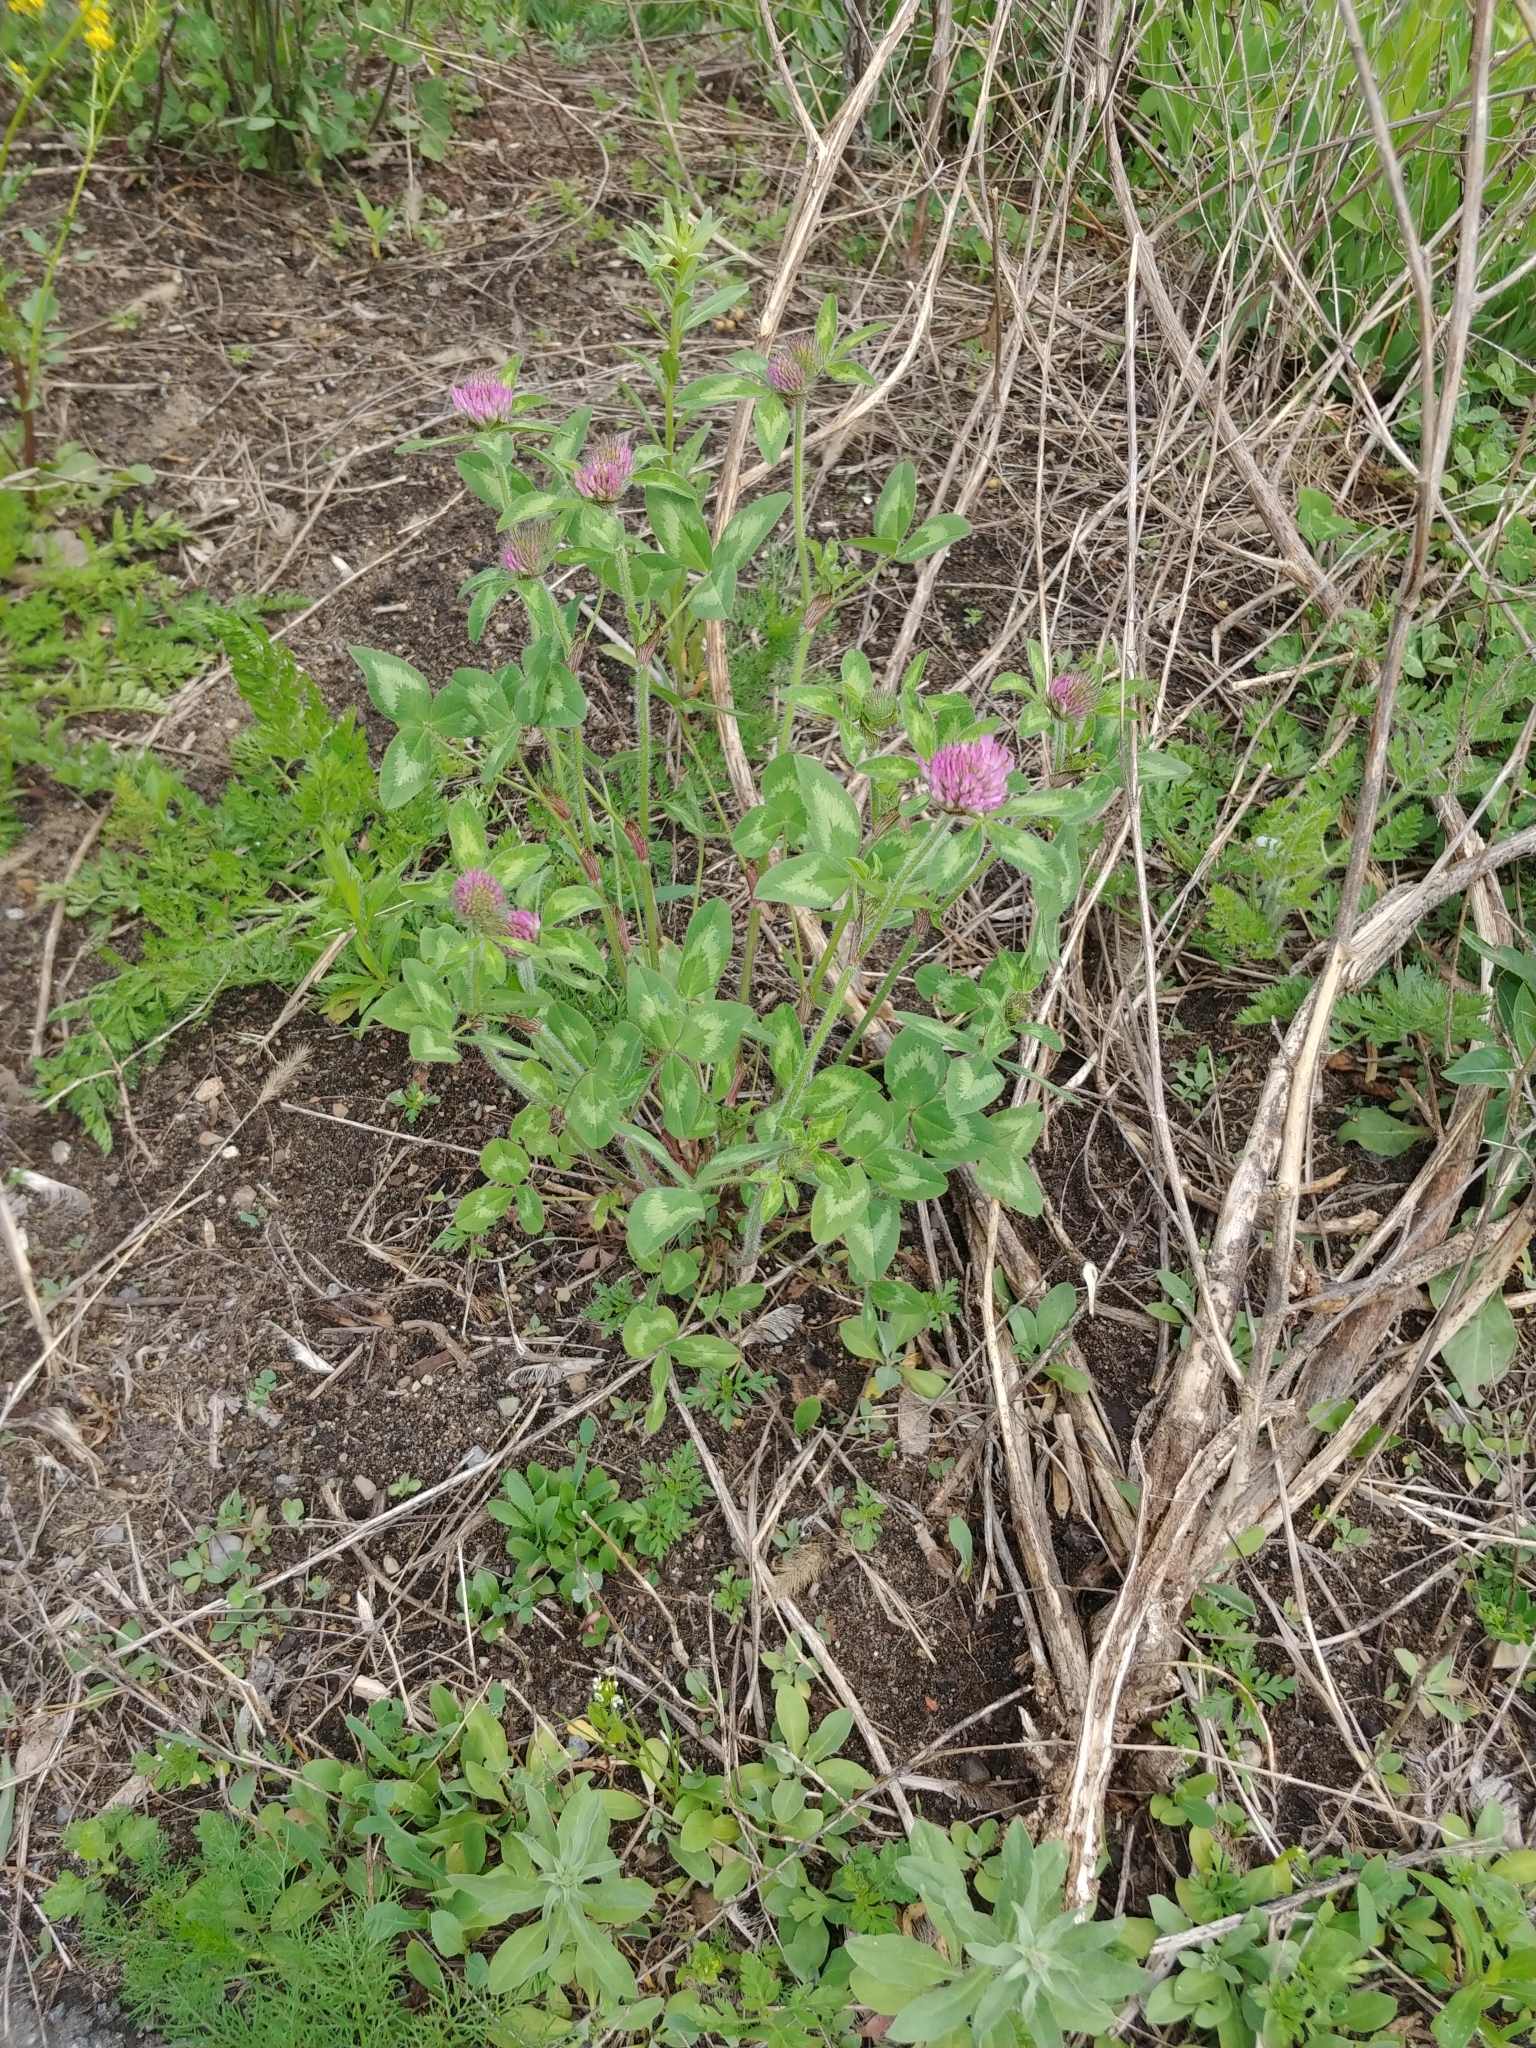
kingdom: Plantae
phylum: Tracheophyta
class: Magnoliopsida
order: Fabales
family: Fabaceae
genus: Trifolium
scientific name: Trifolium pratense
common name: Red clover
